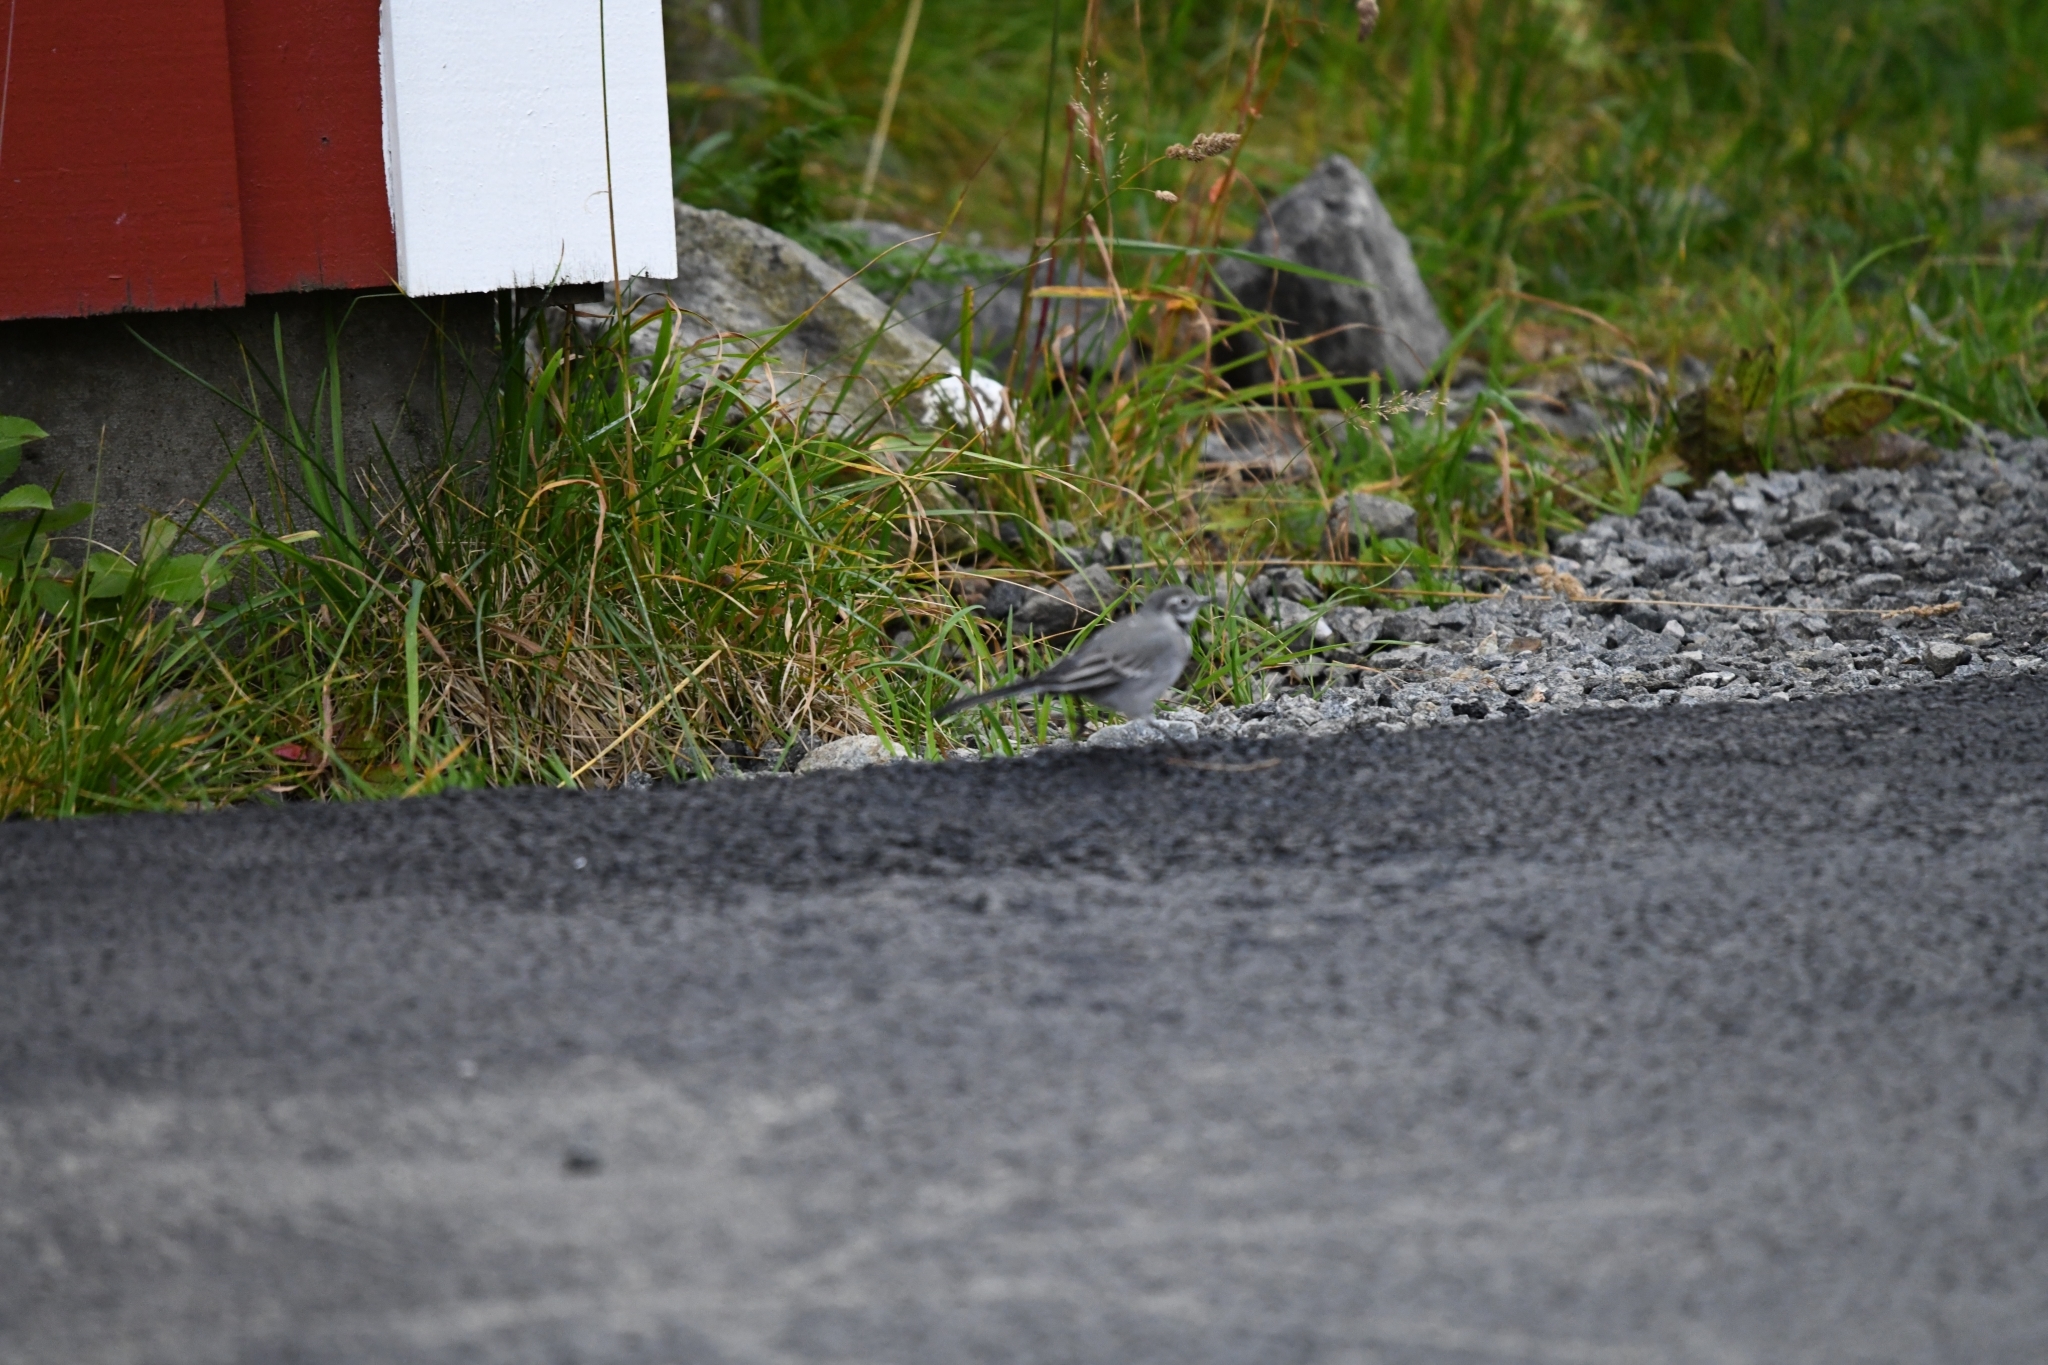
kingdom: Animalia
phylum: Chordata
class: Aves
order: Passeriformes
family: Motacillidae
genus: Motacilla
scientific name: Motacilla alba
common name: White wagtail
